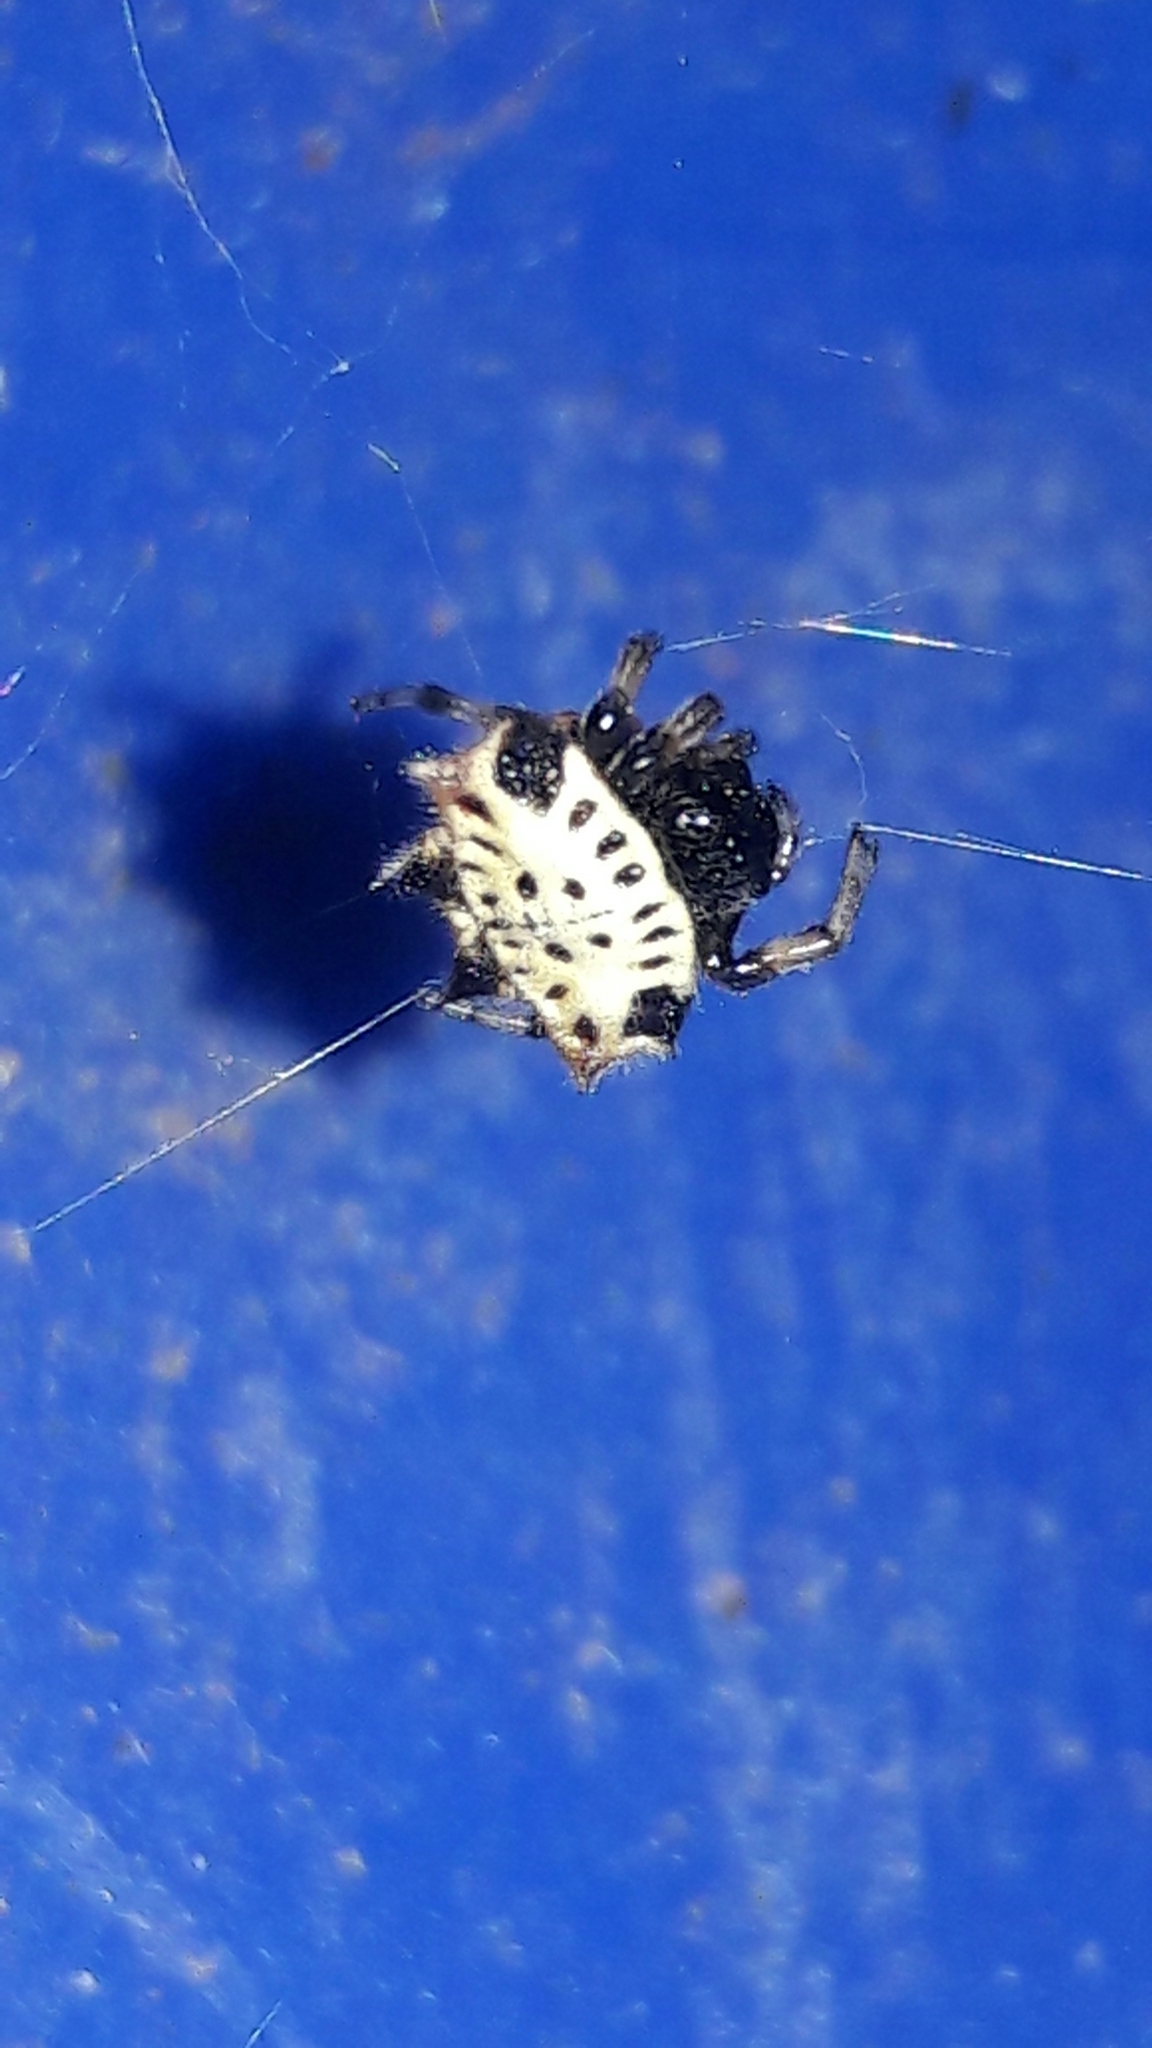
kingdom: Animalia
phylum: Arthropoda
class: Arachnida
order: Araneae
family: Araneidae
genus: Gasteracantha
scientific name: Gasteracantha cancriformis
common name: Orb weavers
